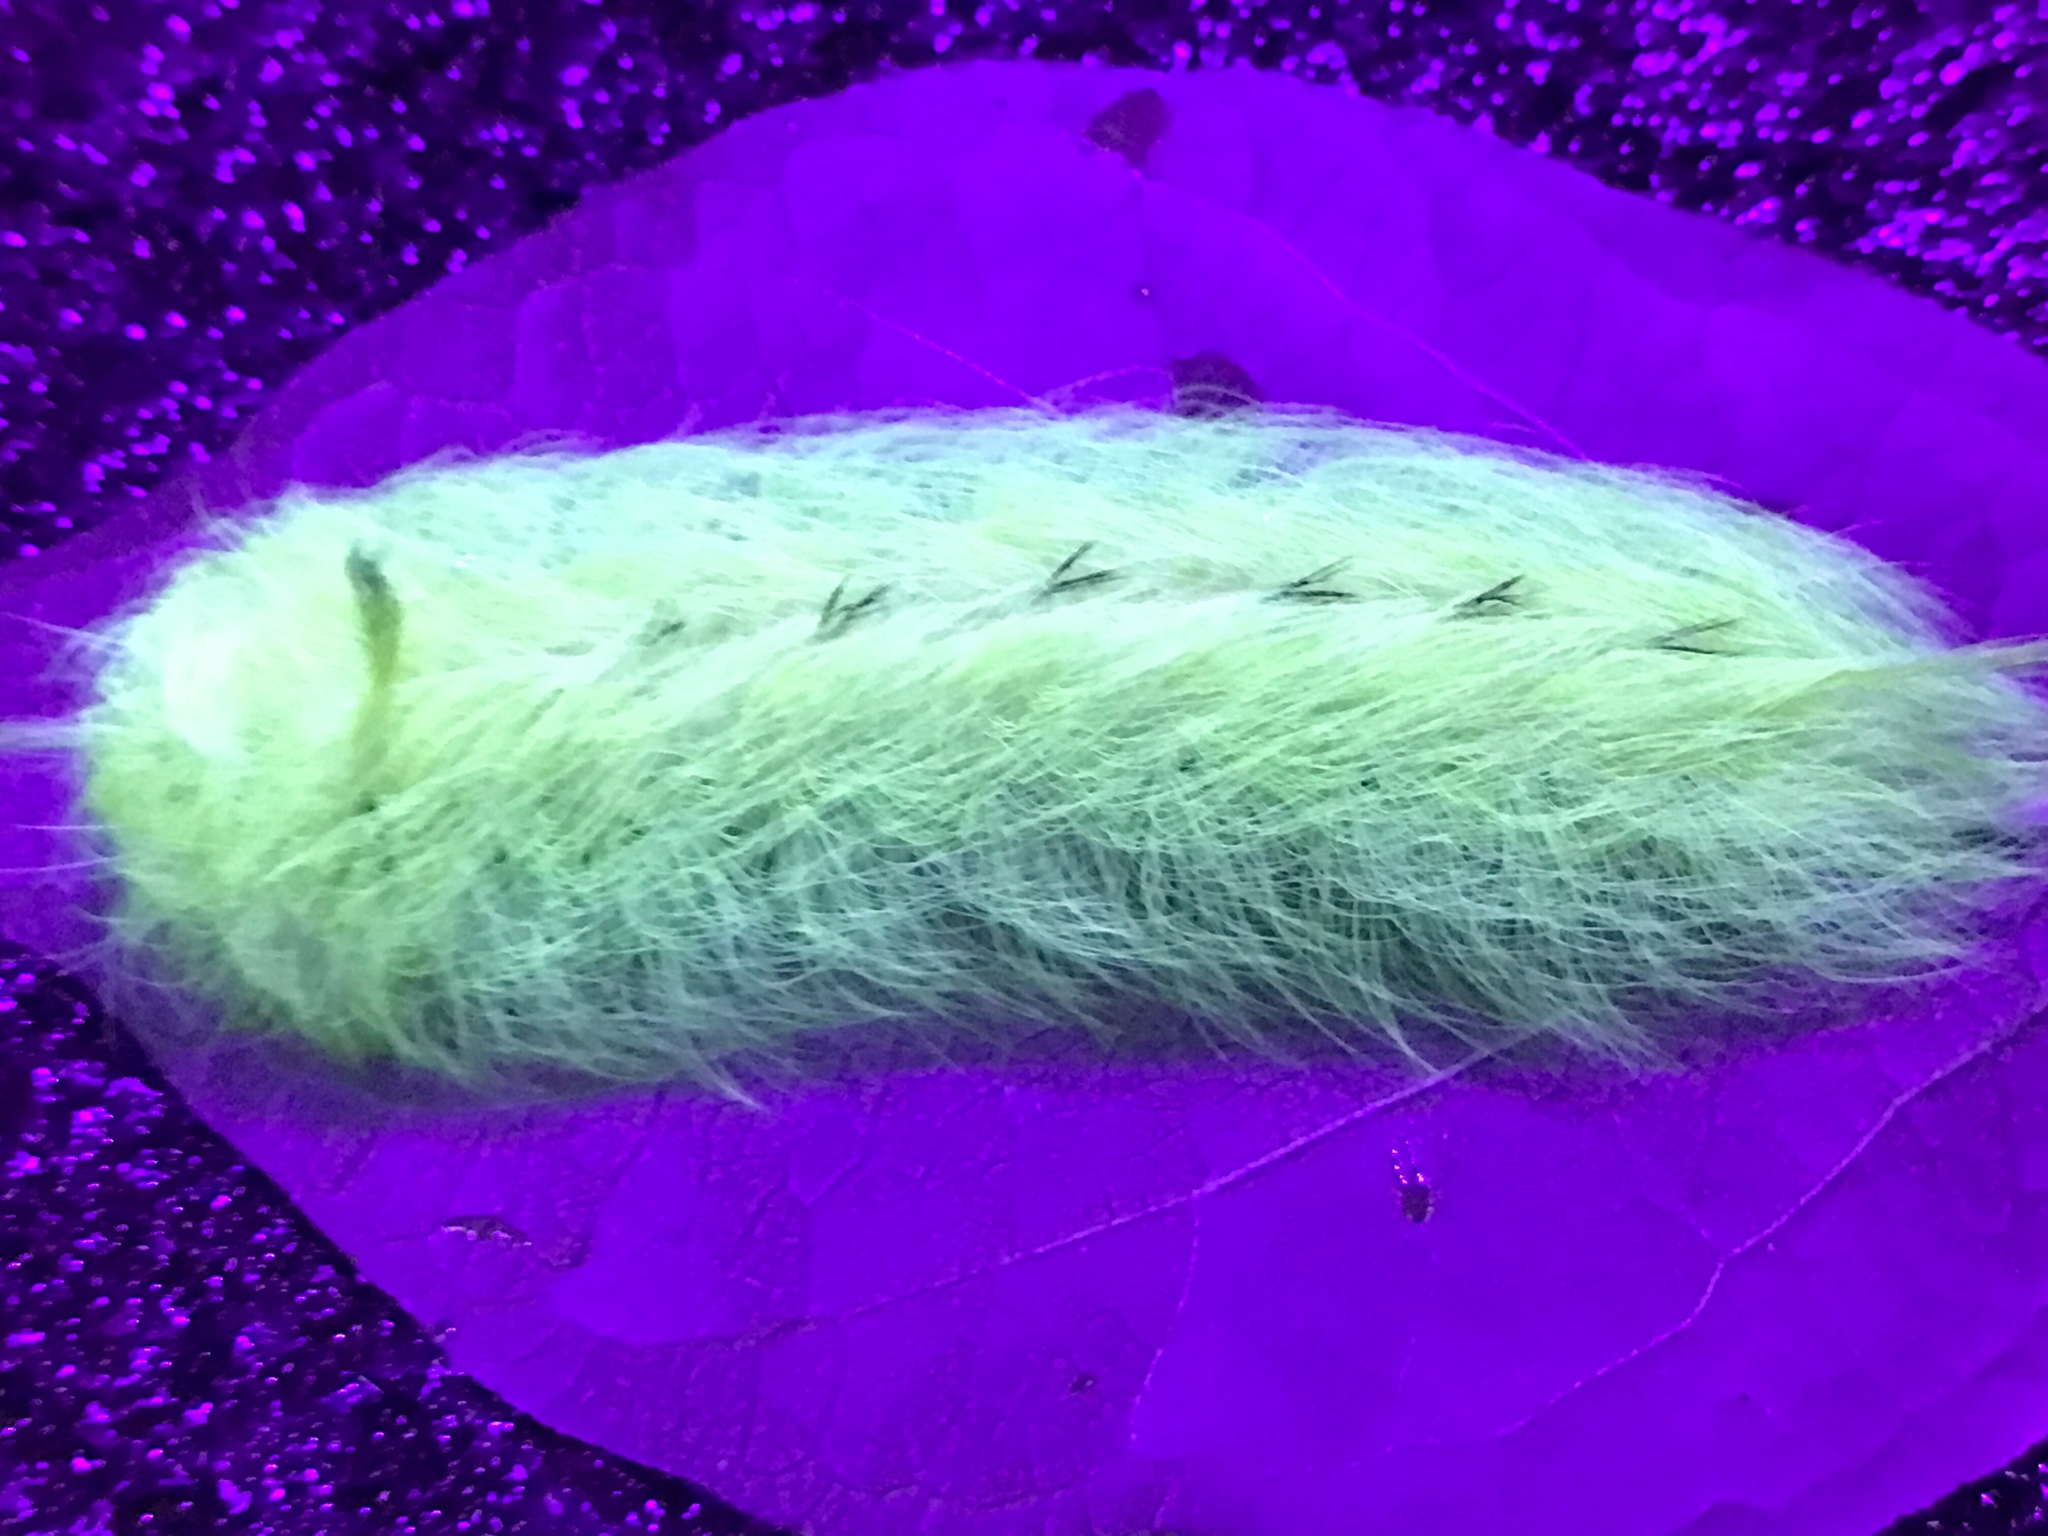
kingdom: Animalia
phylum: Arthropoda
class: Insecta
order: Lepidoptera
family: Apatelodidae
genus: Hygrochroa
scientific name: Hygrochroa Apatelodes torrefacta
